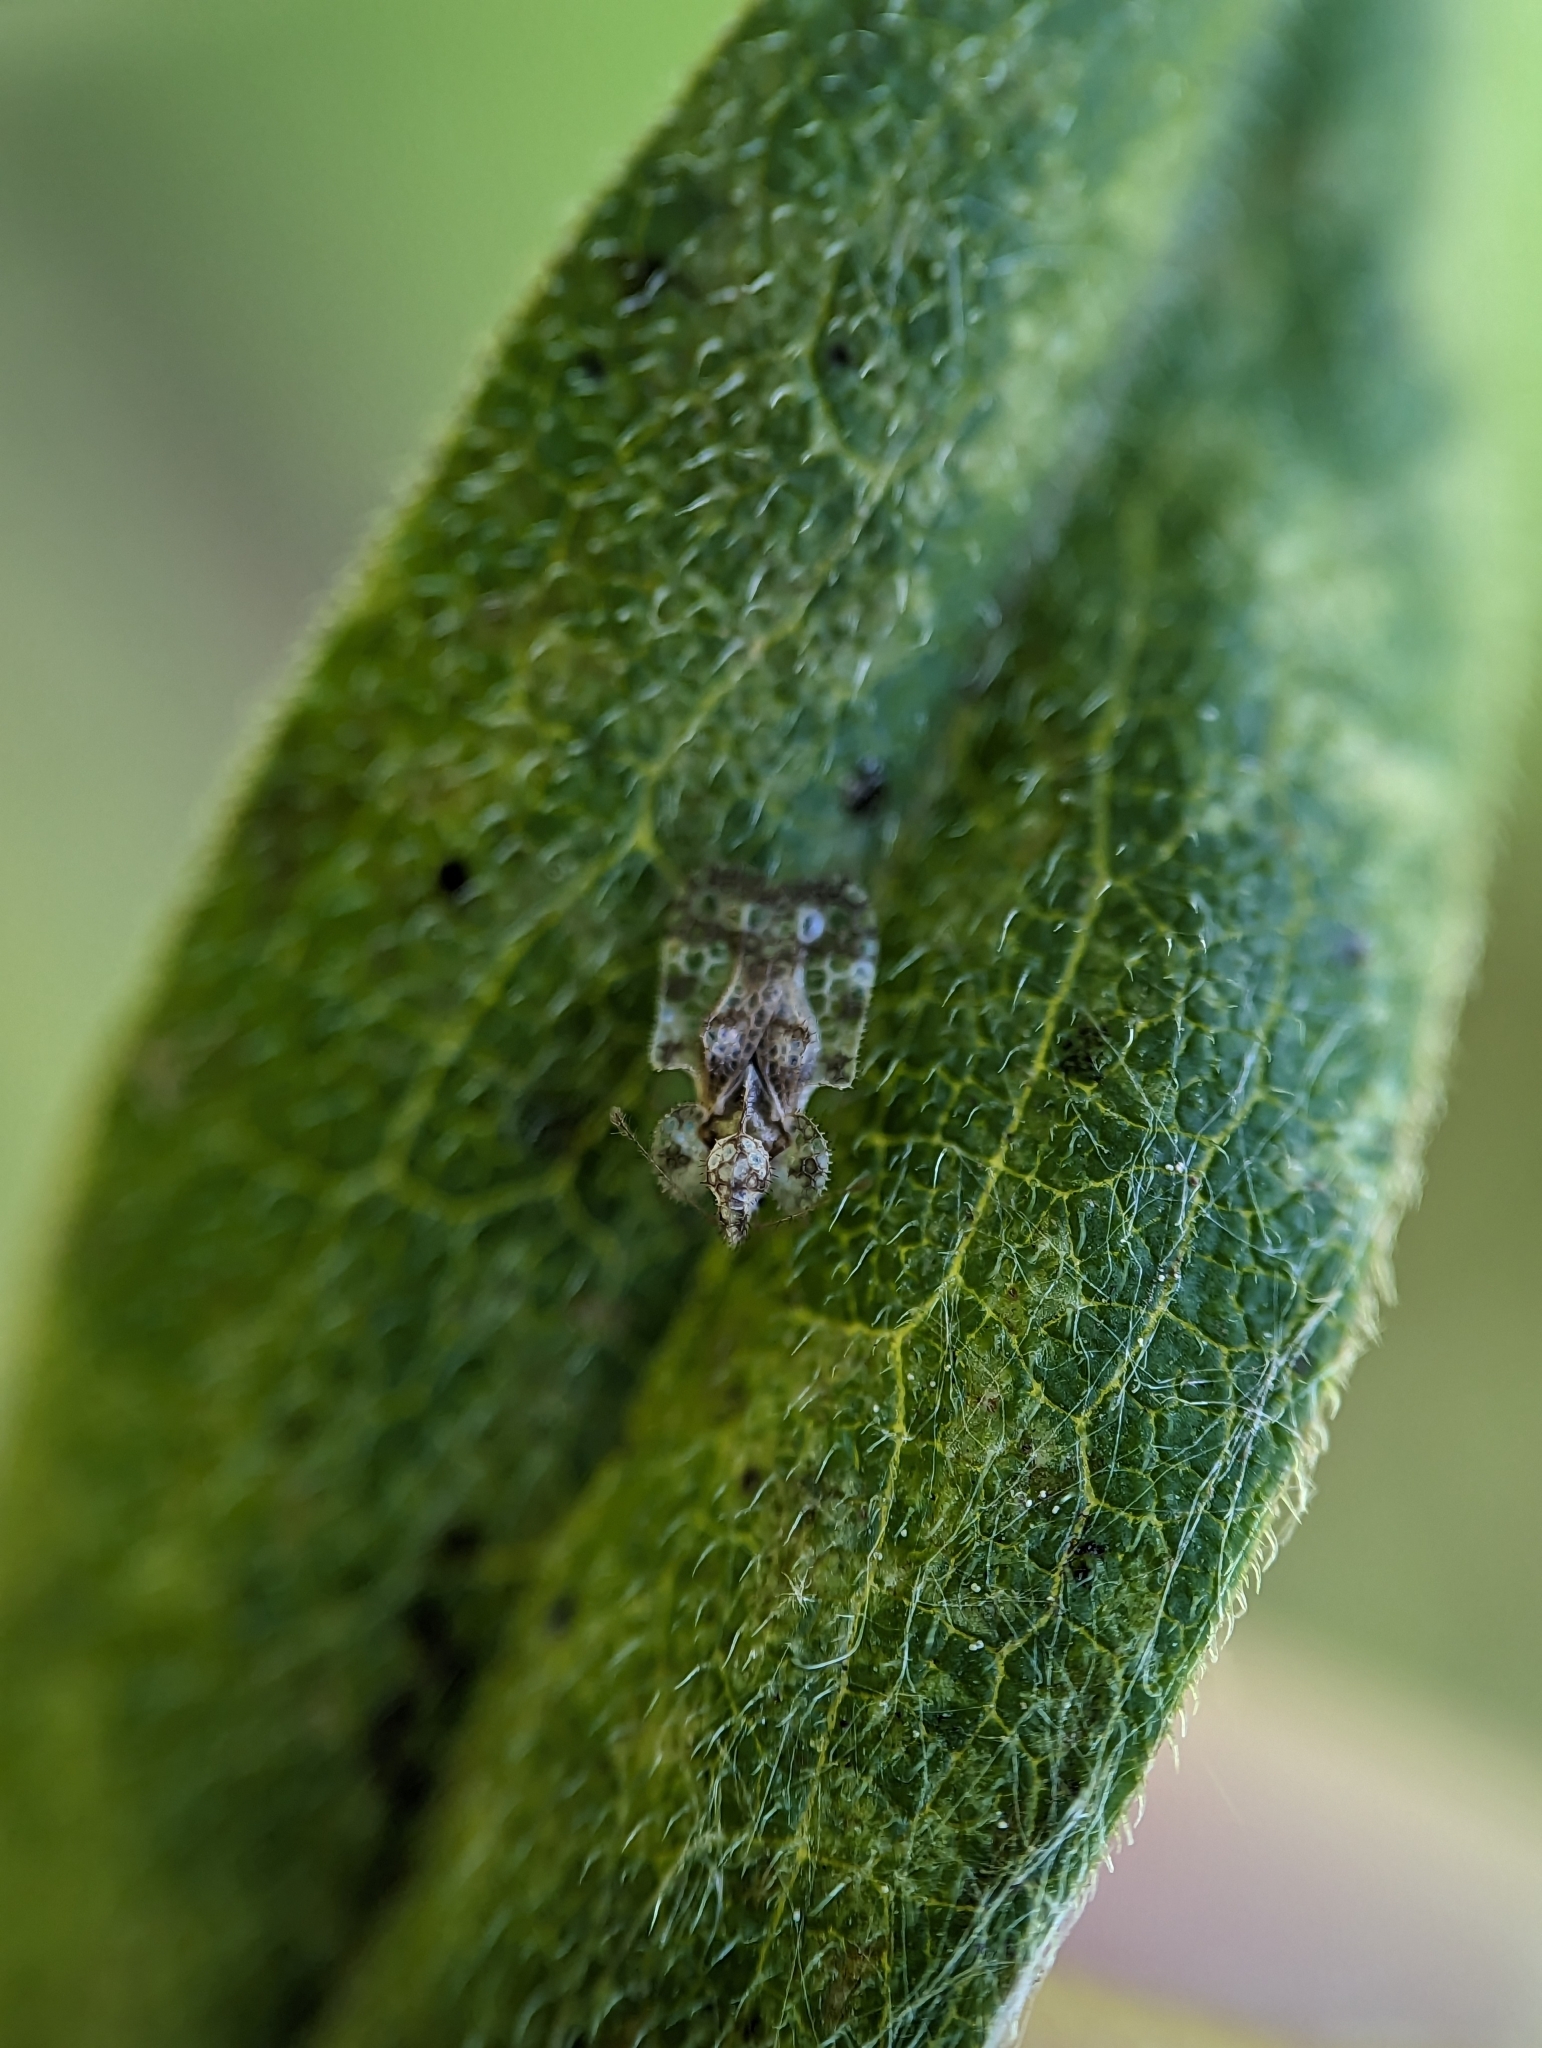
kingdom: Animalia
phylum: Arthropoda
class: Insecta
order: Hemiptera
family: Tingidae
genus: Corythucha
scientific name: Corythucha marmorata
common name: Chrysanthemum lace bug
